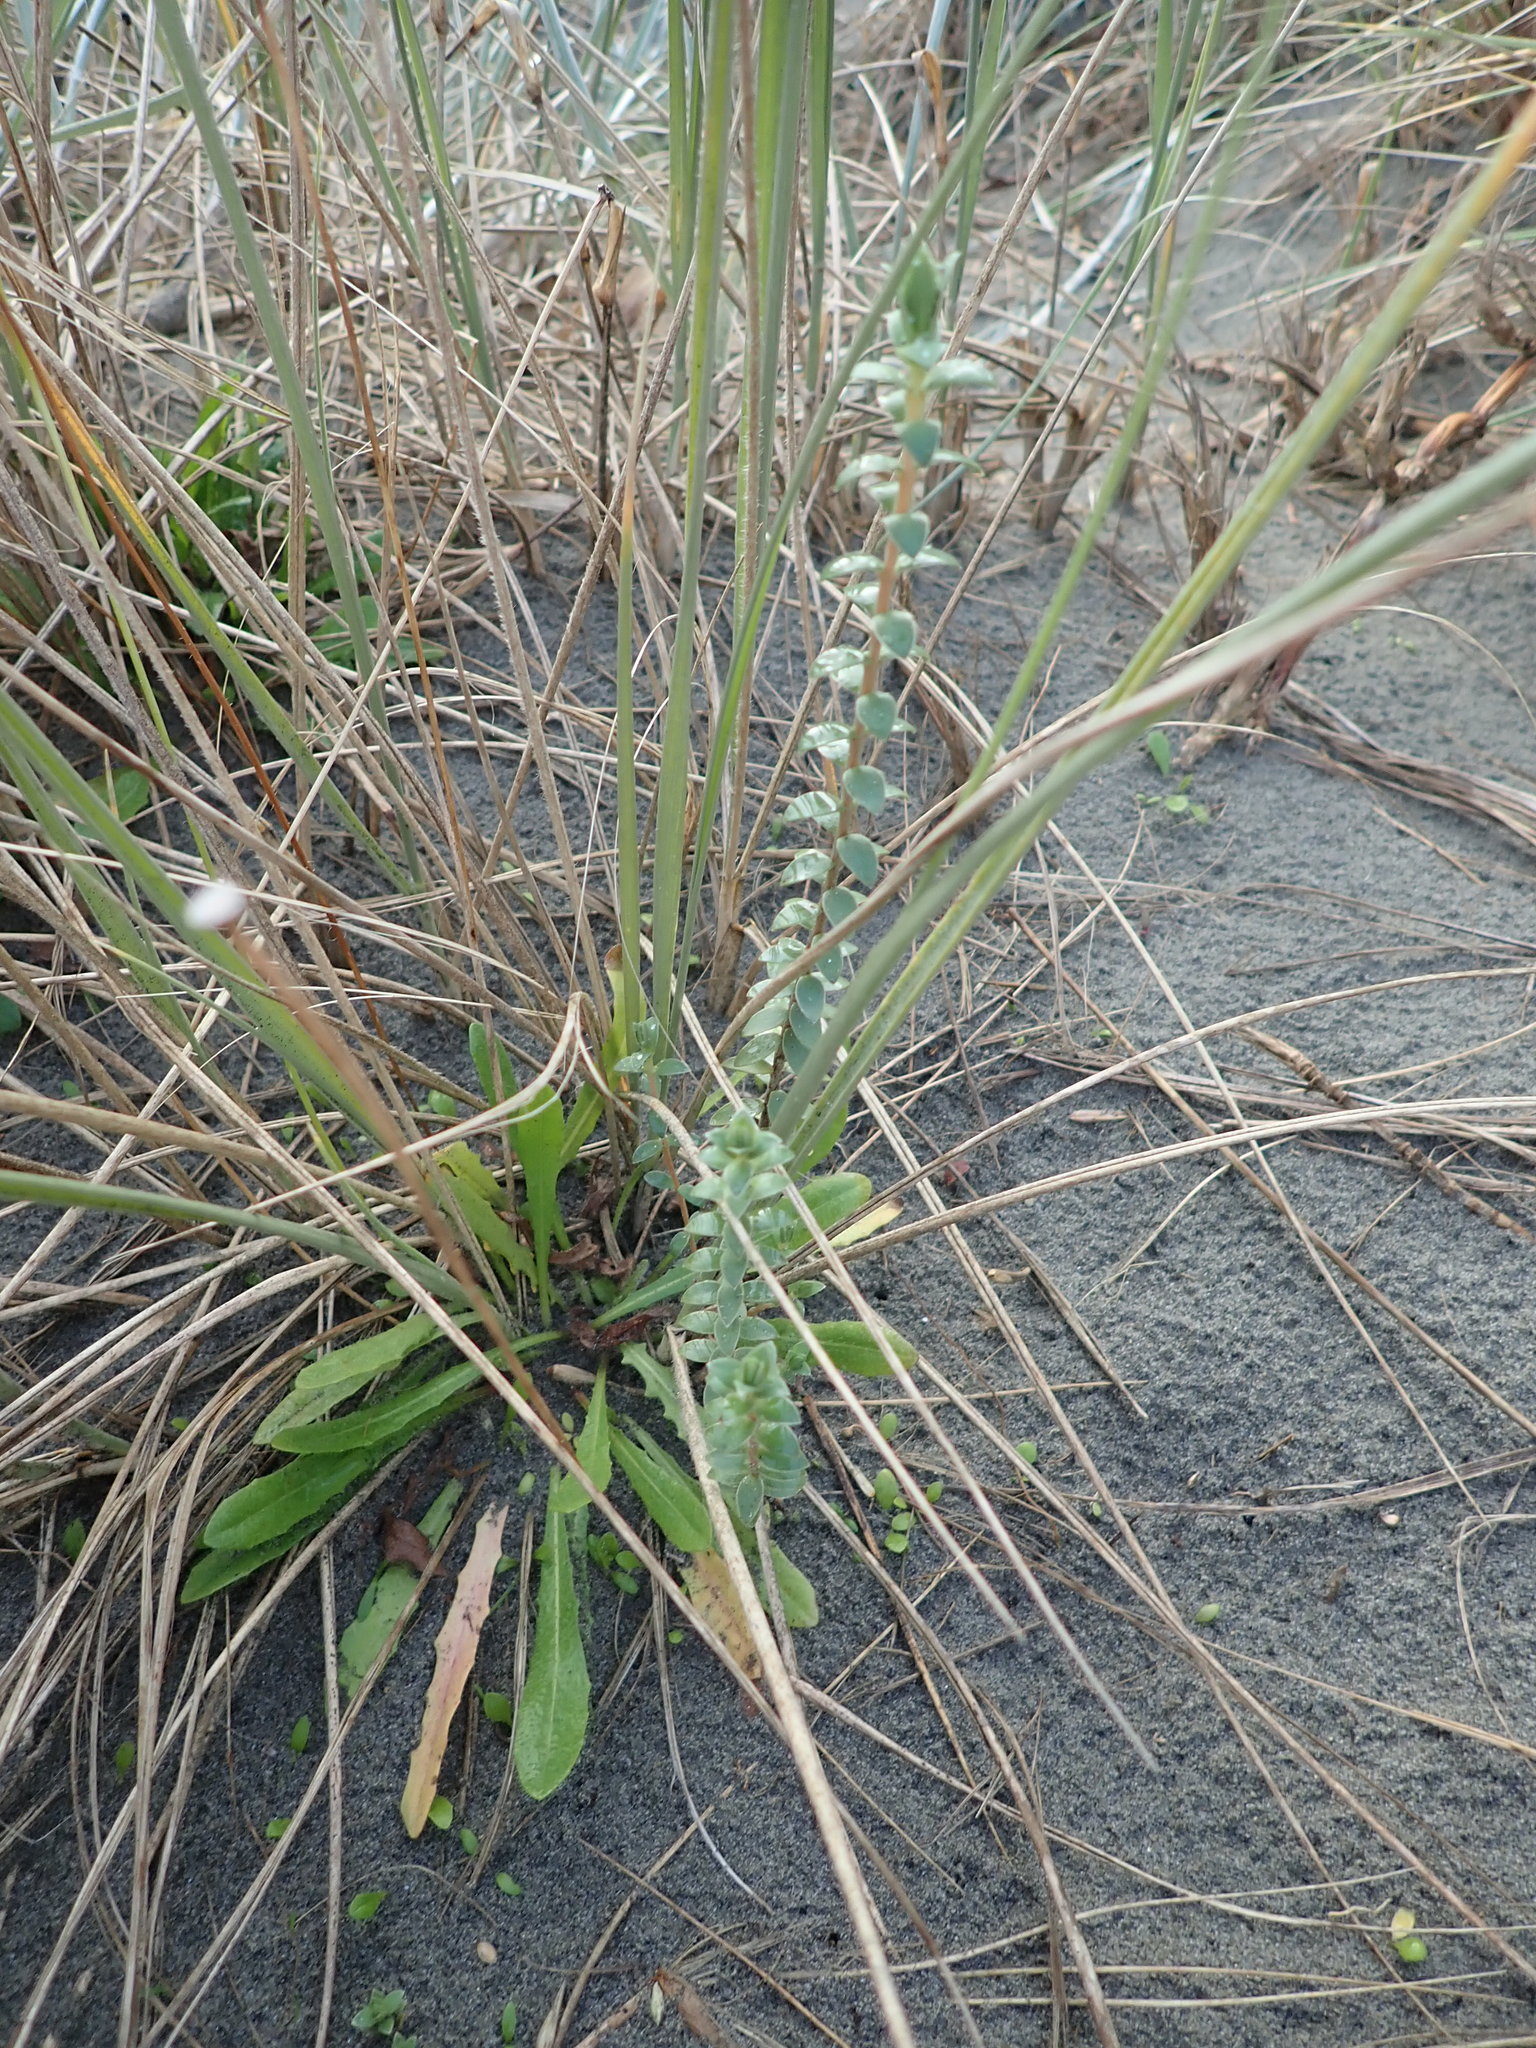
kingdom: Plantae
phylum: Tracheophyta
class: Magnoliopsida
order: Malvales
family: Thymelaeaceae
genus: Pimelea
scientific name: Pimelea villosa
